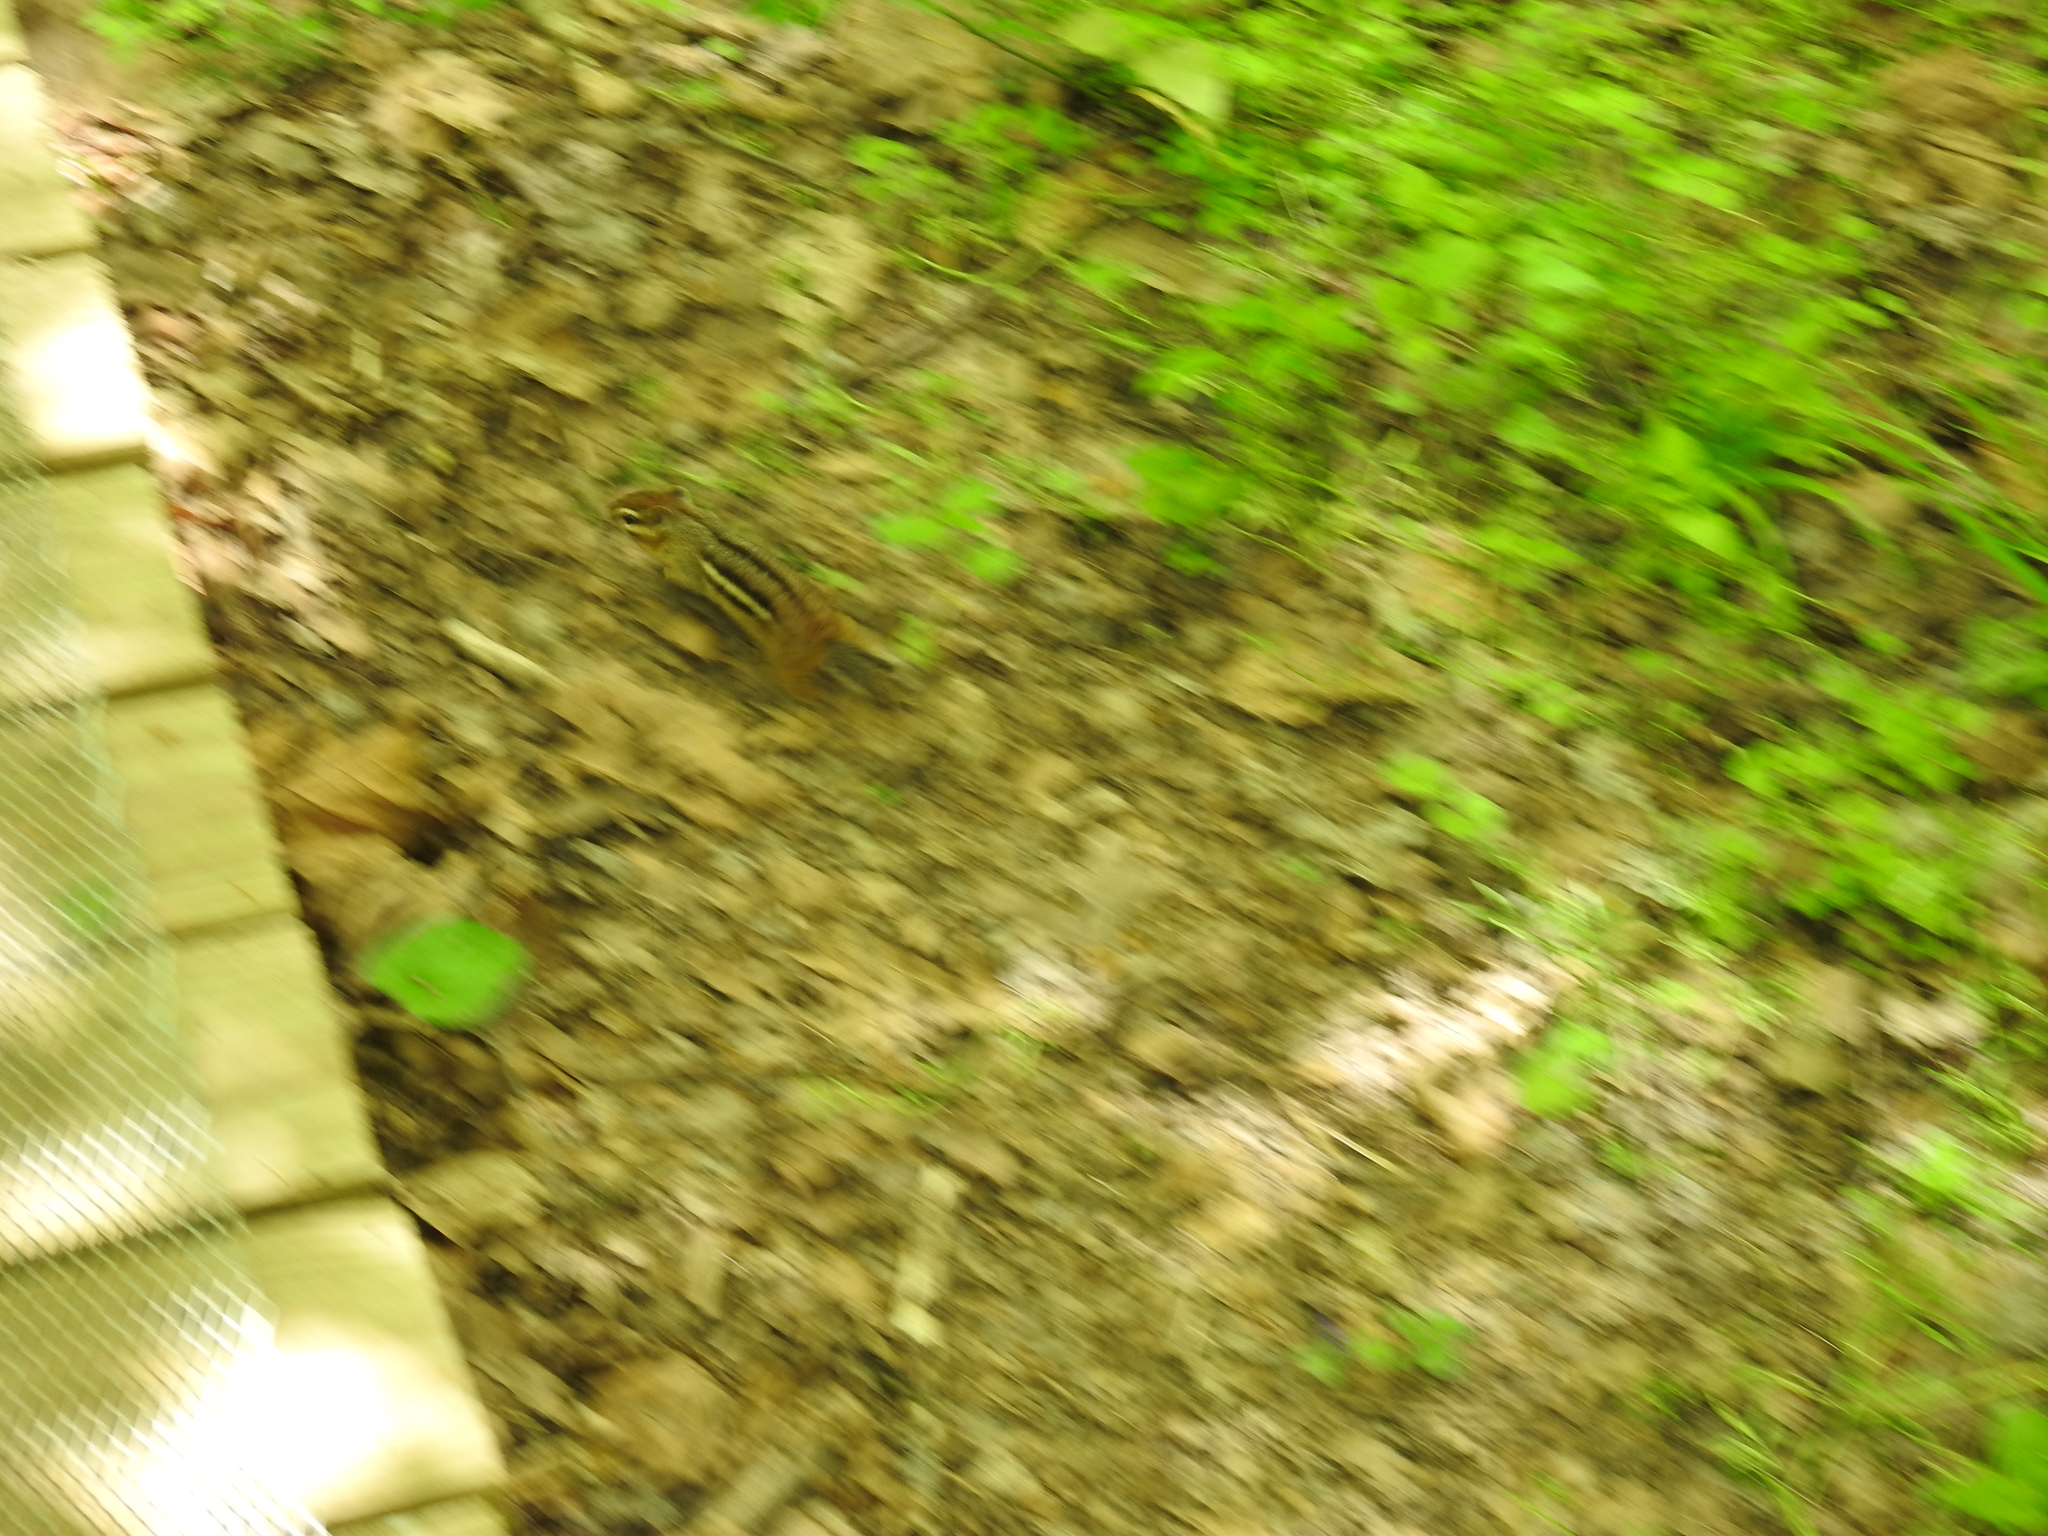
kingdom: Animalia
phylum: Chordata
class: Mammalia
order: Rodentia
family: Sciuridae
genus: Tamias
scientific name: Tamias striatus
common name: Eastern chipmunk
